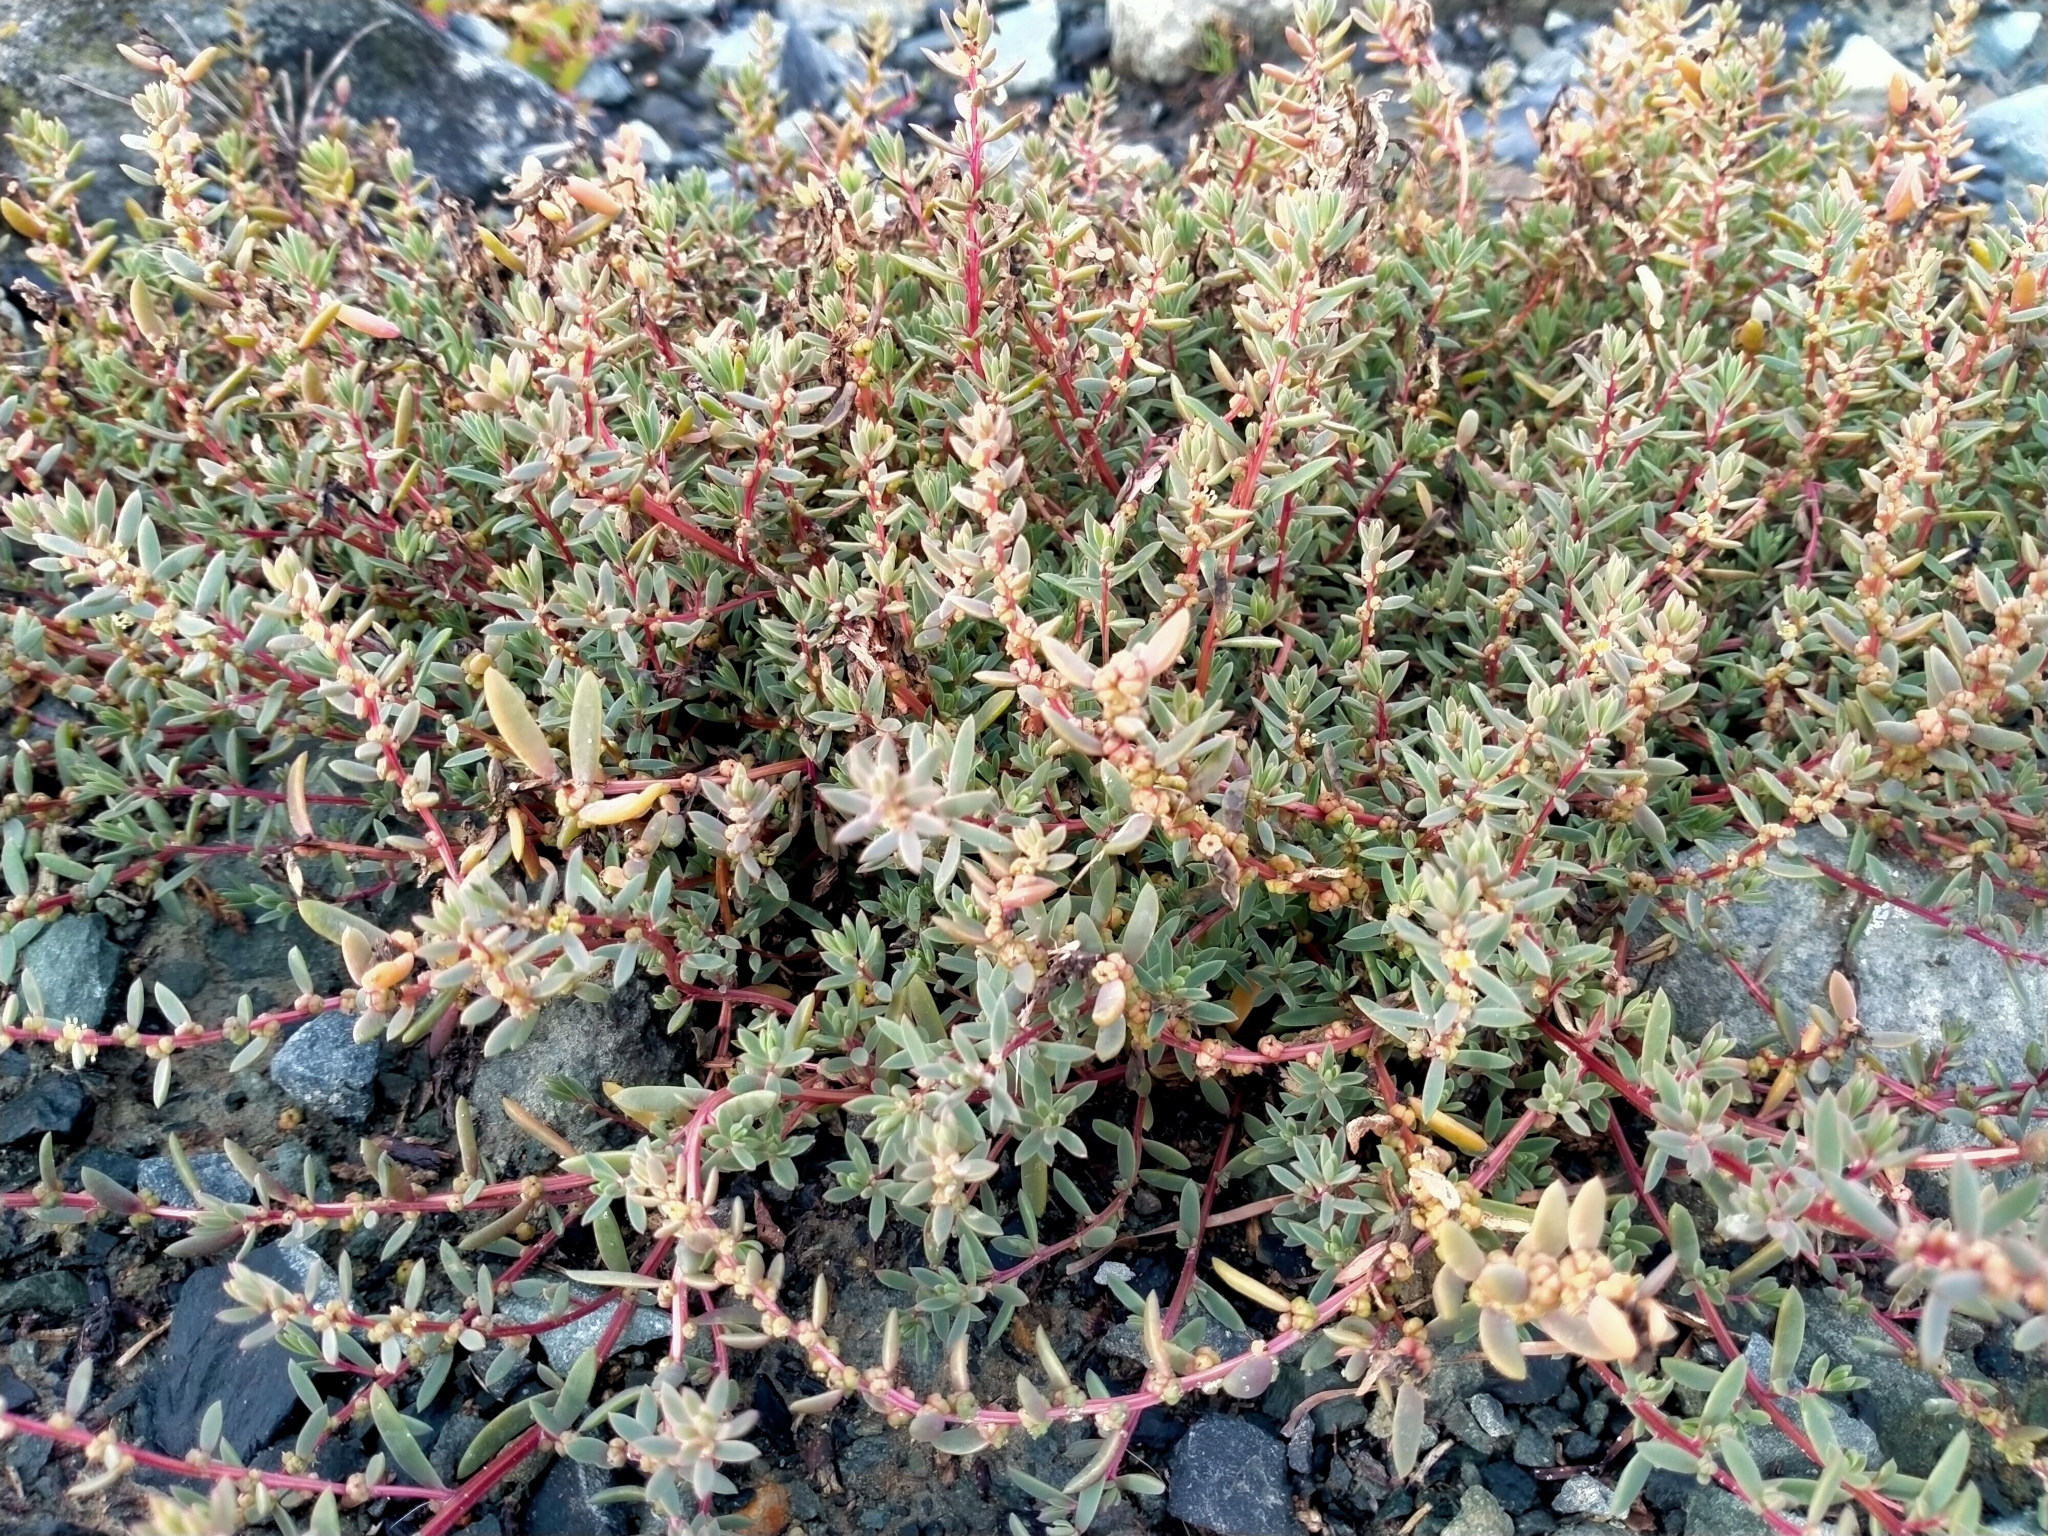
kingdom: Plantae
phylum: Tracheophyta
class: Magnoliopsida
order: Caryophyllales
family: Amaranthaceae
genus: Suaeda
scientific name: Suaeda novae-zelandiae
